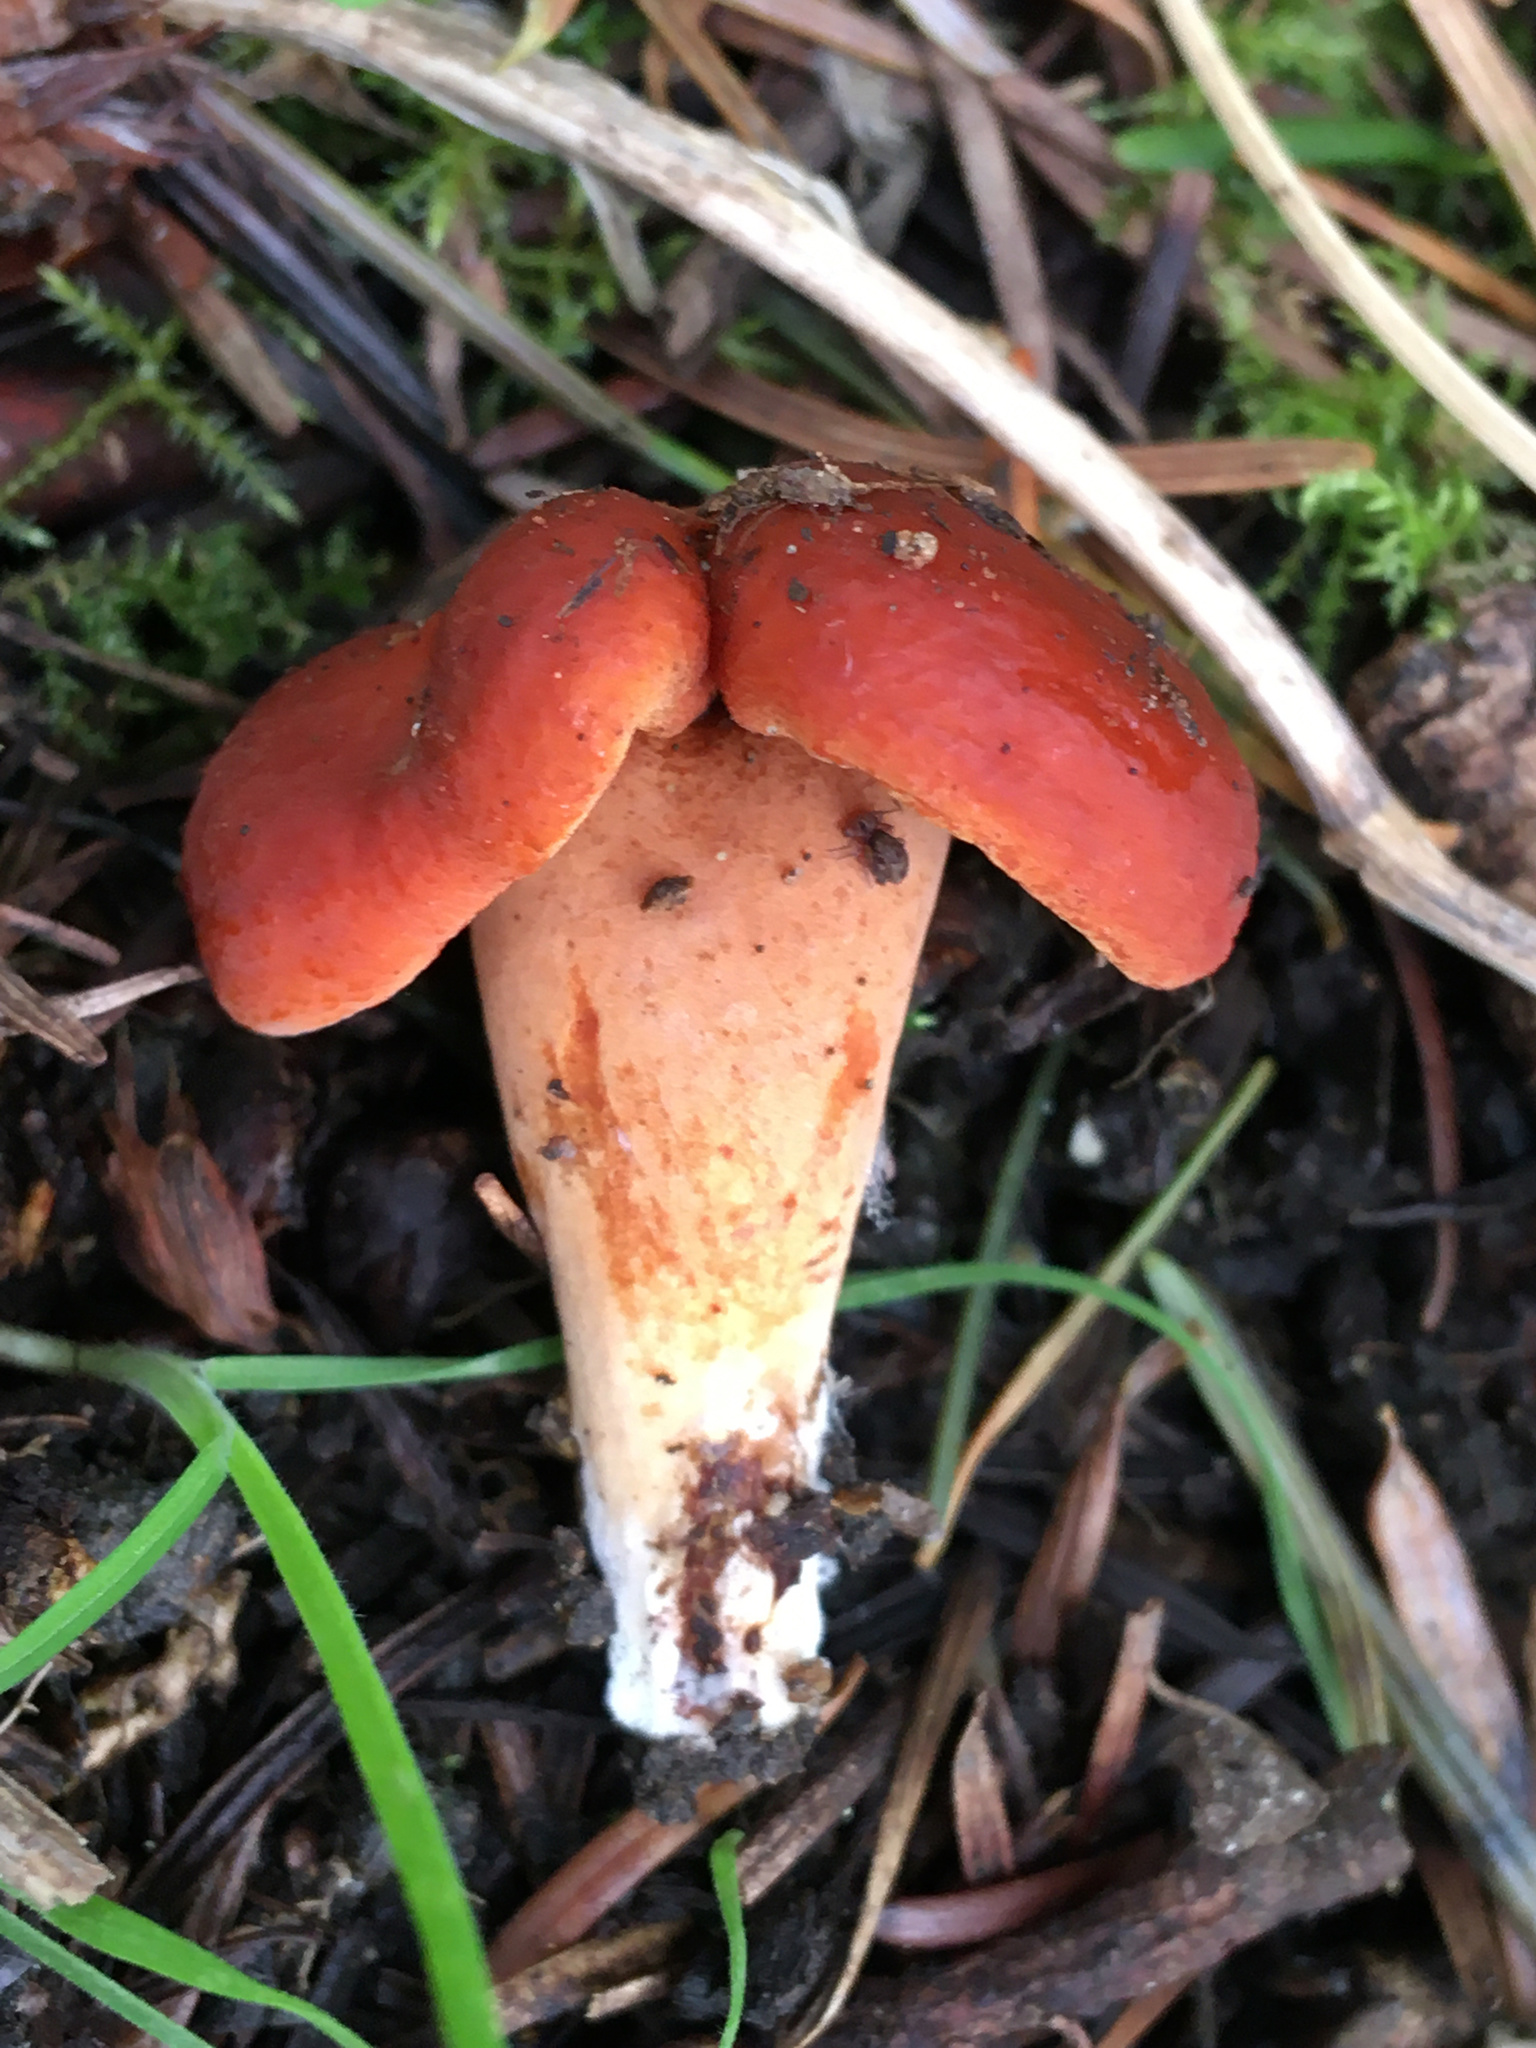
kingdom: Fungi
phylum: Basidiomycota
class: Agaricomycetes
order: Russulales
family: Russulaceae
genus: Lactarius
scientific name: Lactarius rufulus
